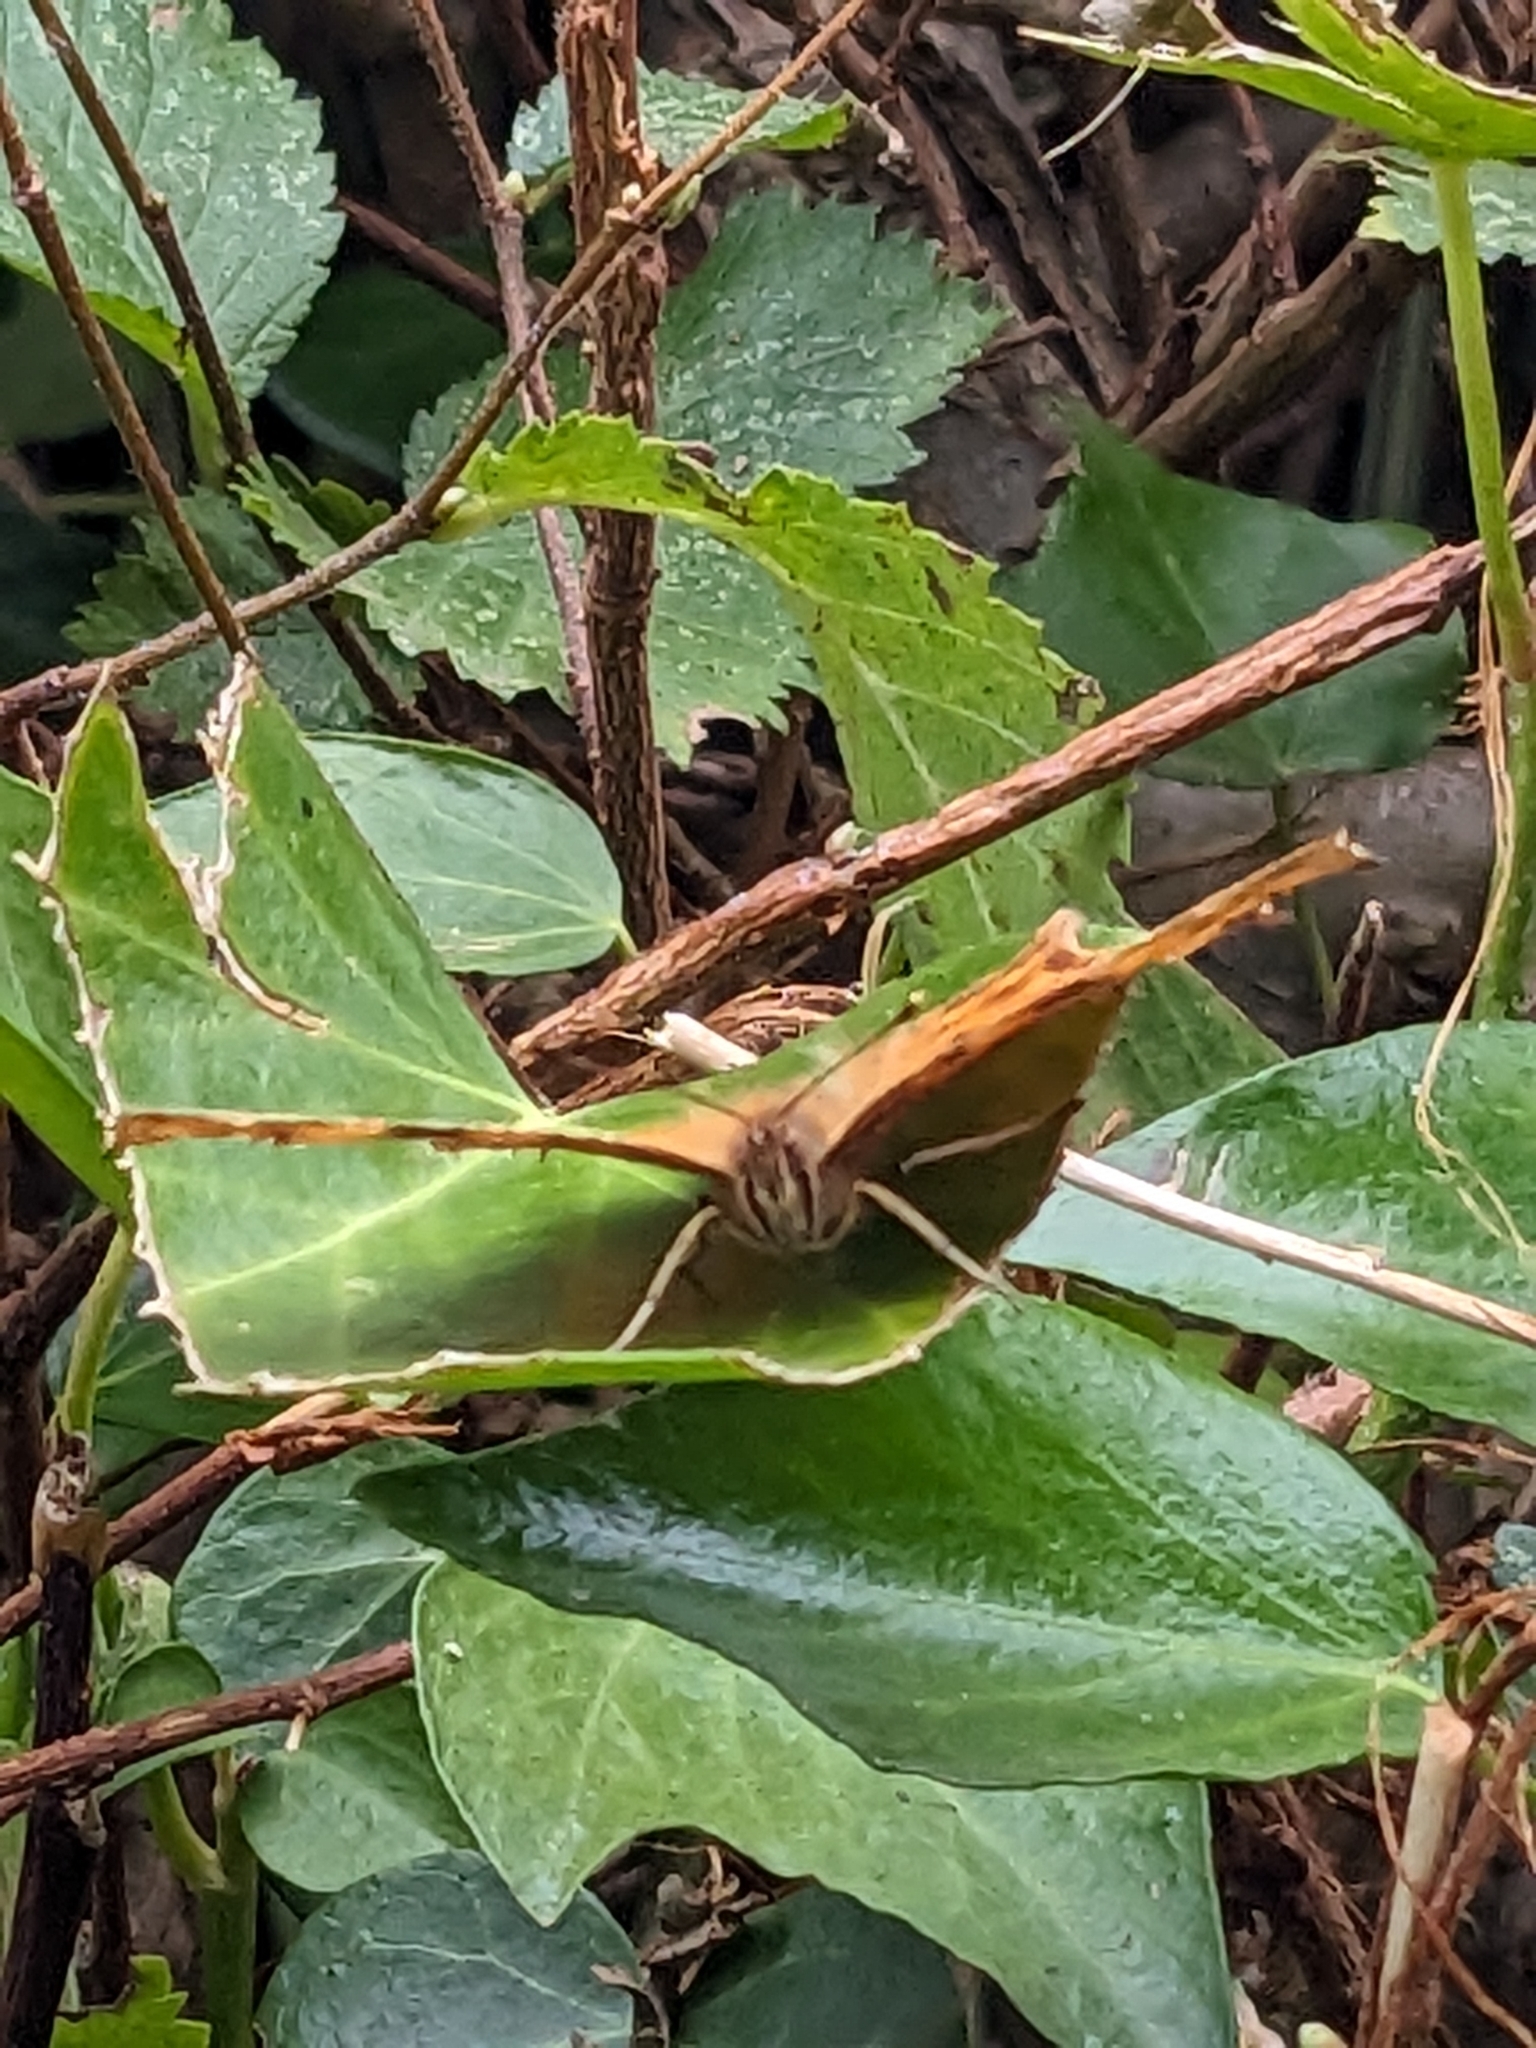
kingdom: Animalia
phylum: Arthropoda
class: Insecta
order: Lepidoptera
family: Nymphalidae
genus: Polygonia
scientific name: Polygonia c-album
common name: Comma
